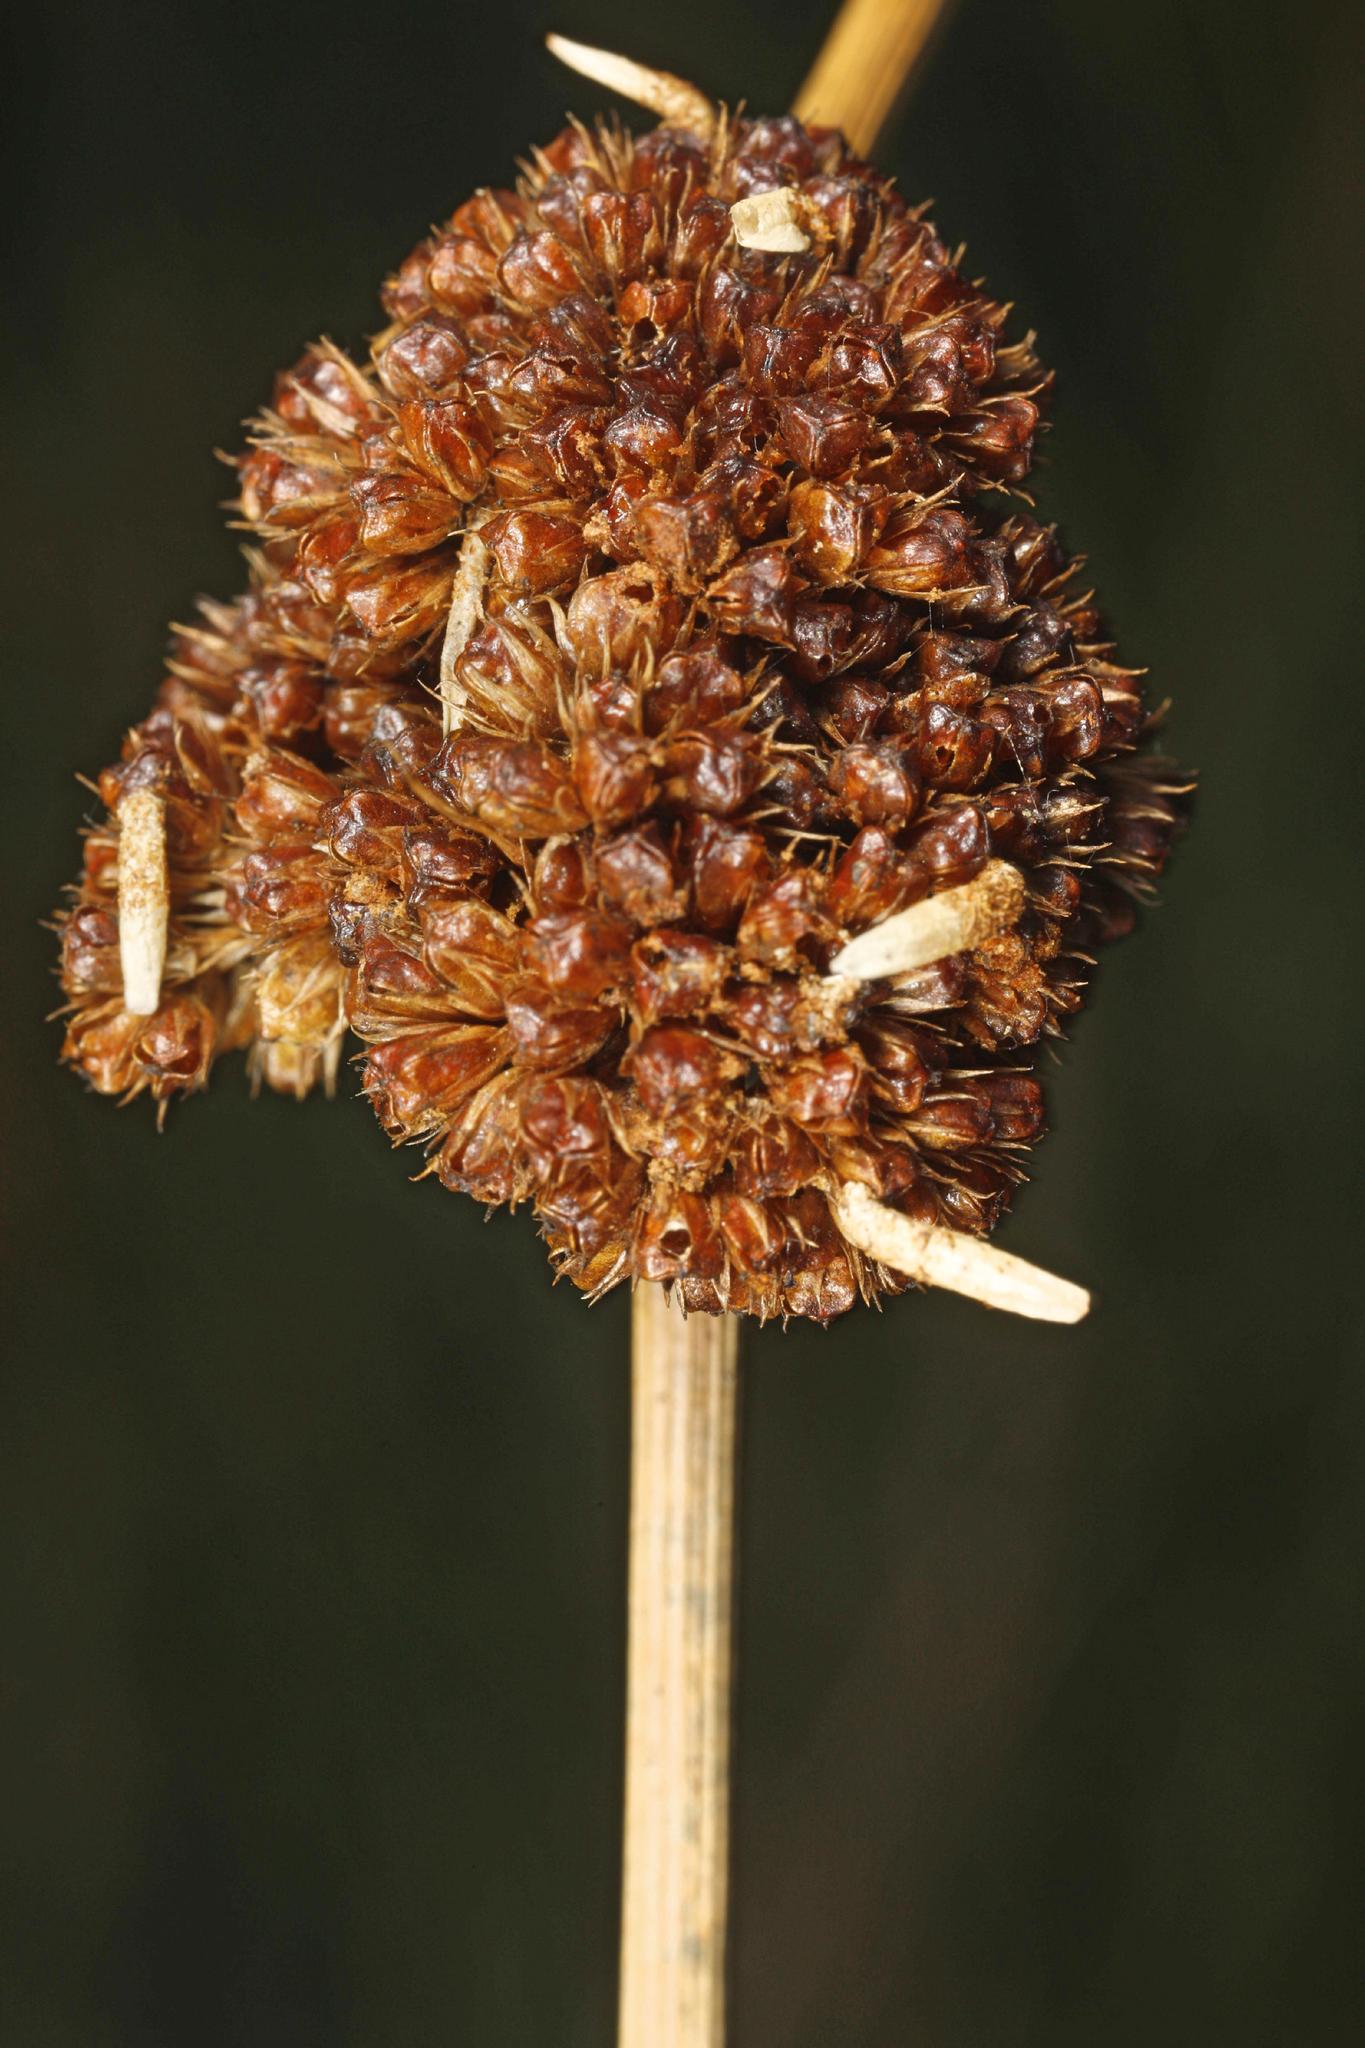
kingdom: Animalia
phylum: Arthropoda
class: Insecta
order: Lepidoptera
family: Coleophoridae
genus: Coleophora
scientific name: Coleophora alticolella
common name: Common rush case-bearer
